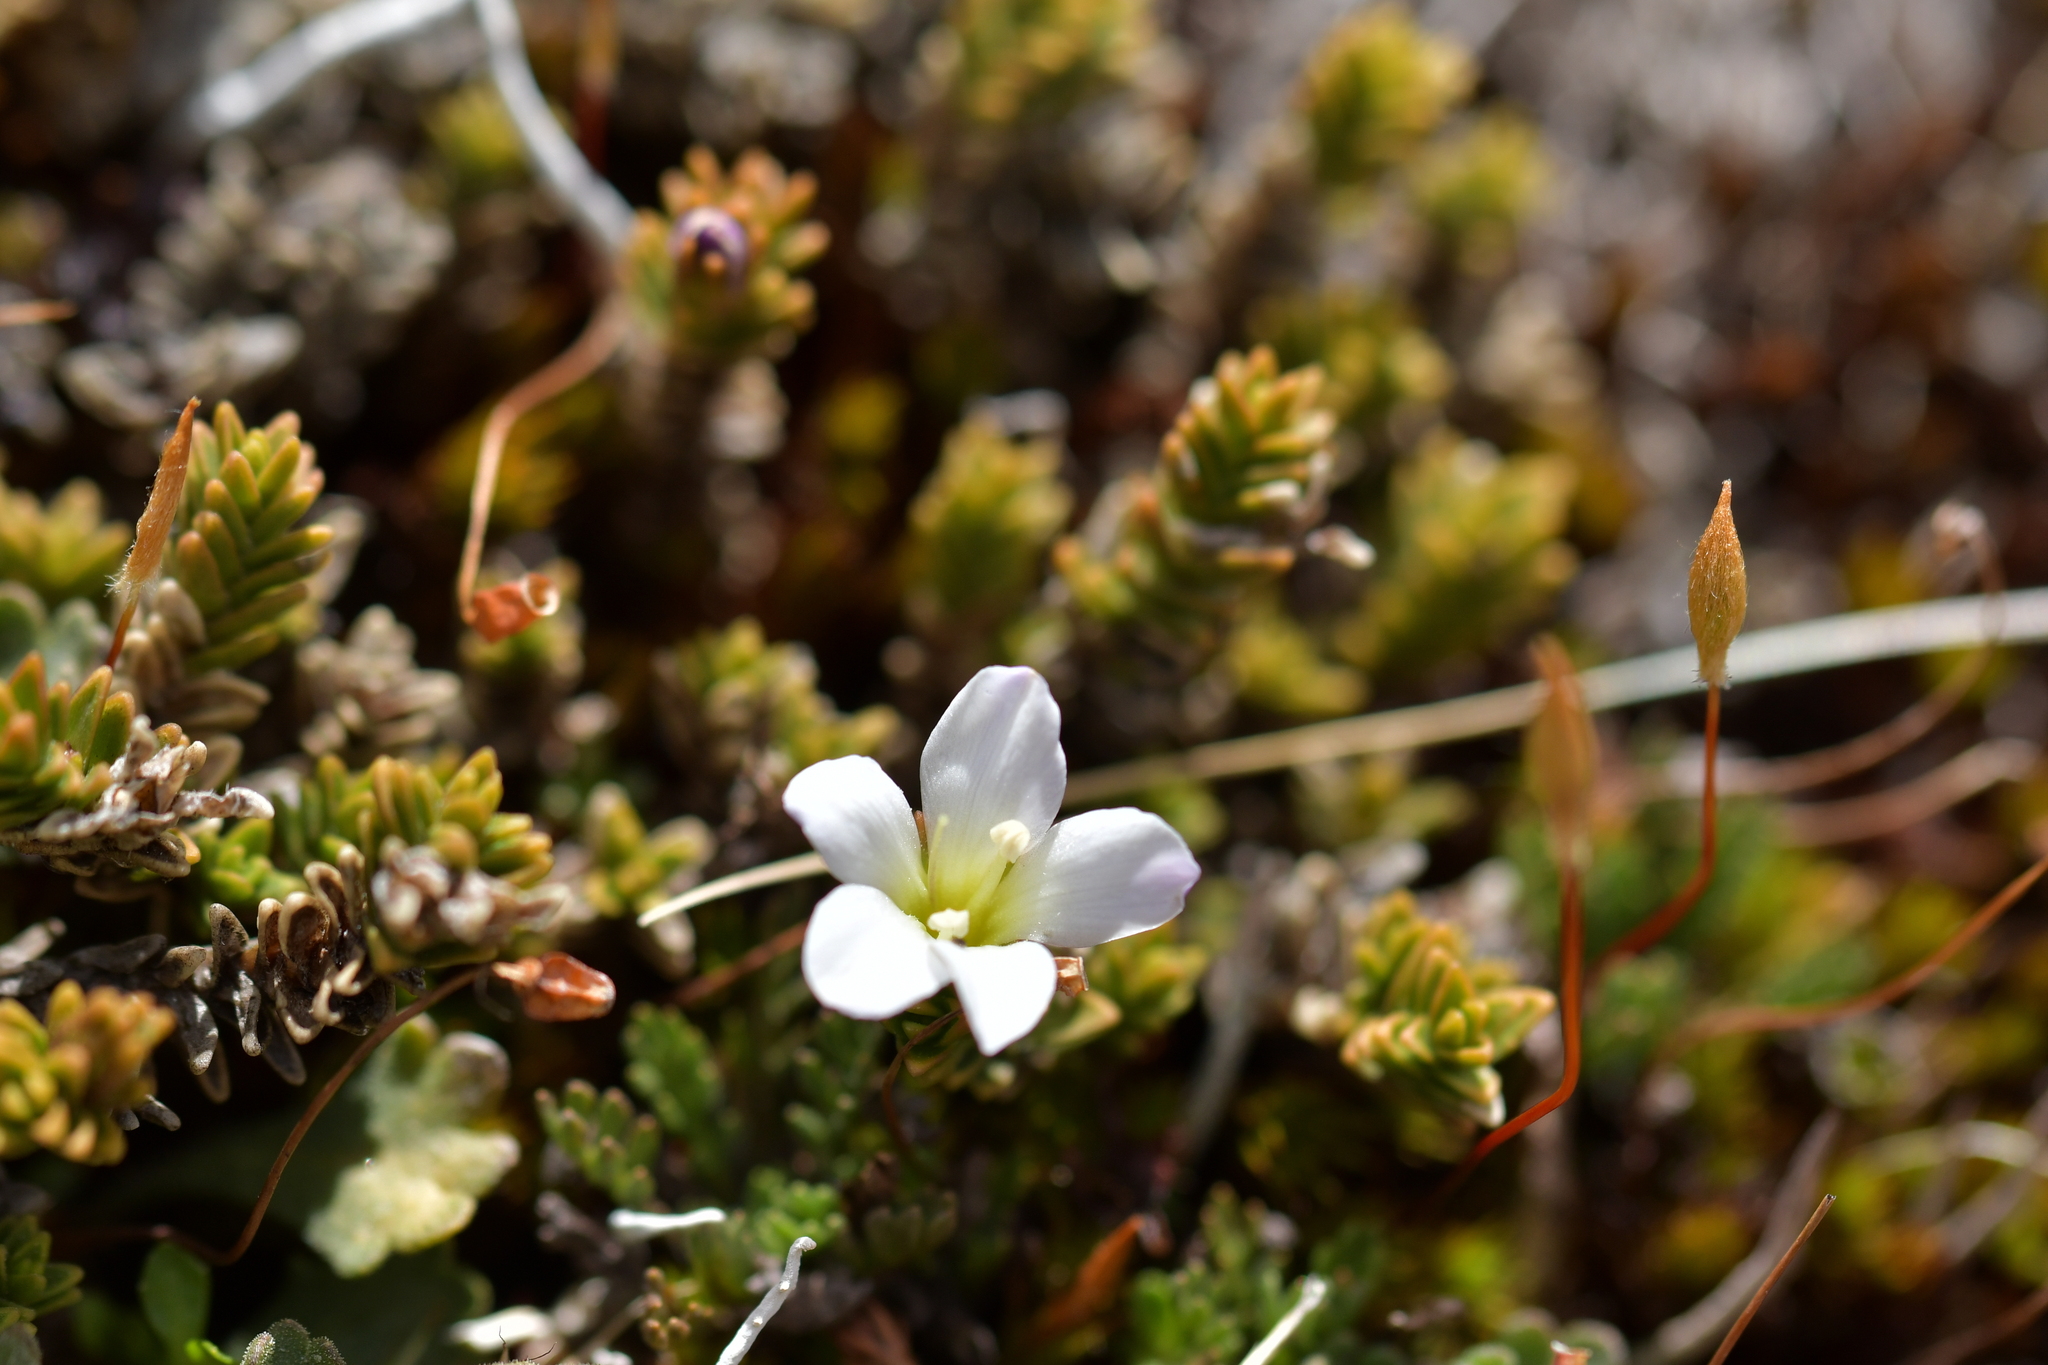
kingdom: Plantae
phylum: Tracheophyta
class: Magnoliopsida
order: Lamiales
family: Plantaginaceae
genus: Veronica
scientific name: Veronica densifolia
